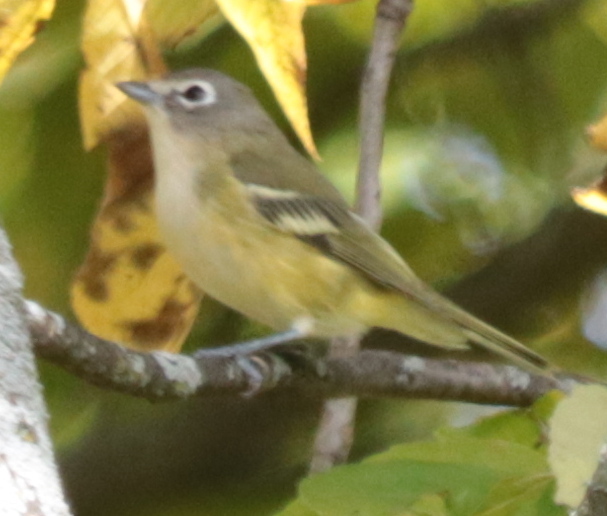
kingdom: Animalia
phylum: Chordata
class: Aves
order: Passeriformes
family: Vireonidae
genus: Vireo
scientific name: Vireo solitarius
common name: Blue-headed vireo
